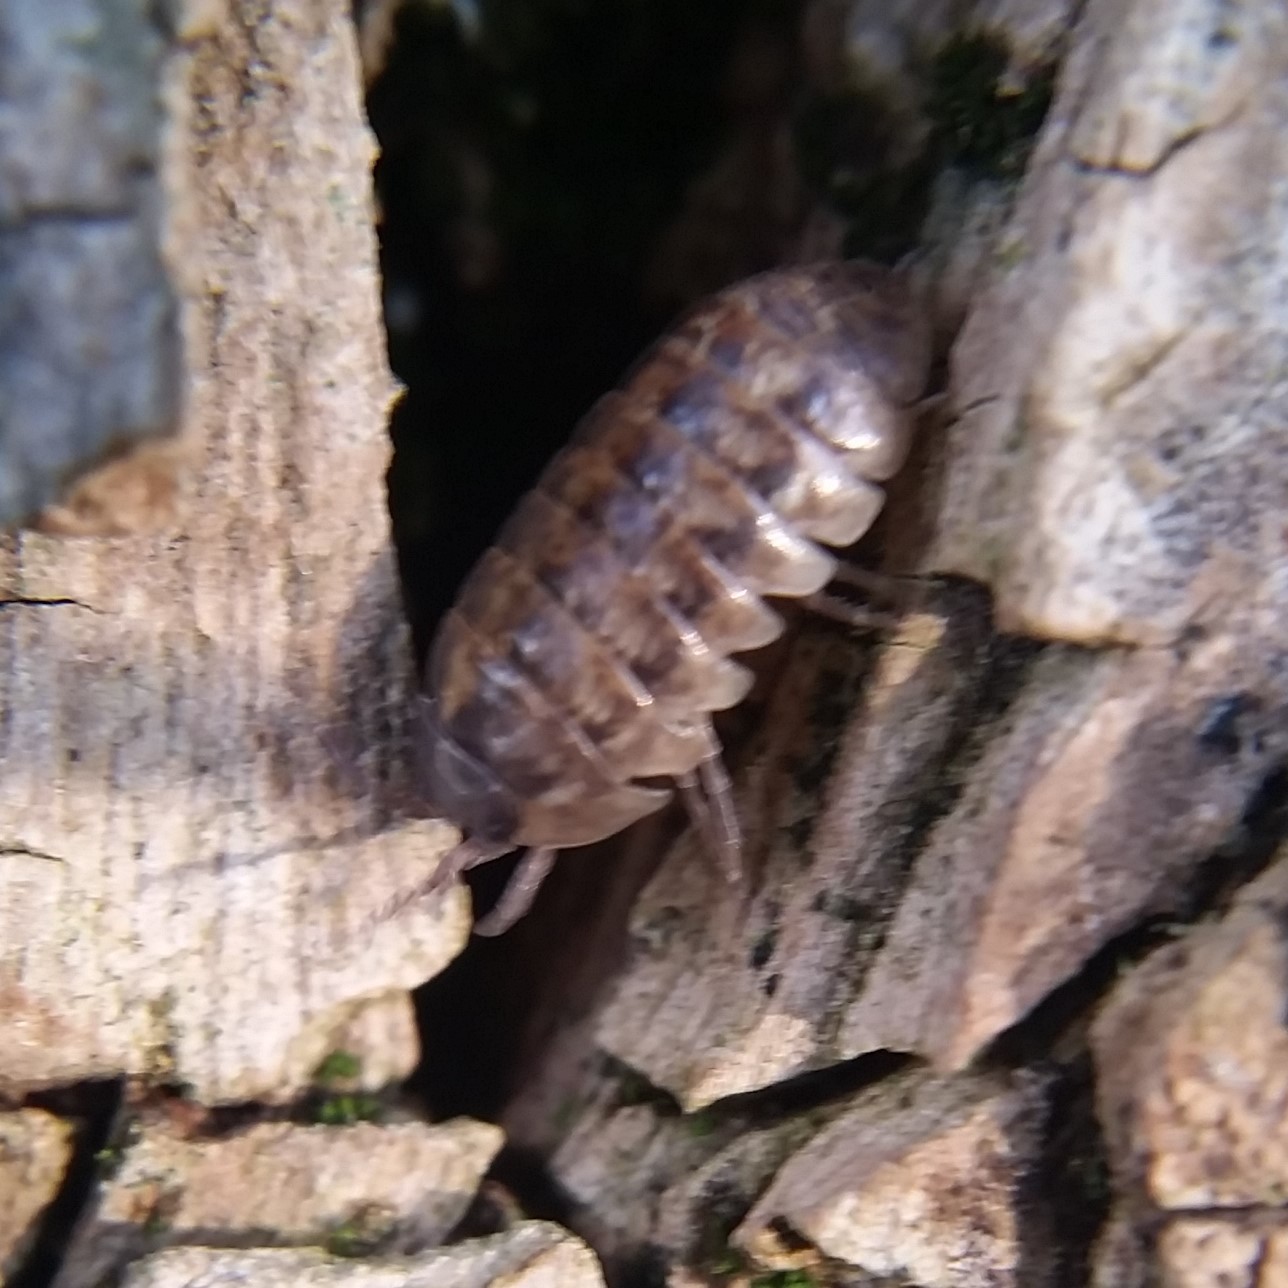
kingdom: Animalia
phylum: Arthropoda
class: Malacostraca
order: Isopoda
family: Armadillidiidae
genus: Armadillidium
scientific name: Armadillidium vulgare
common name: Common pill woodlouse
